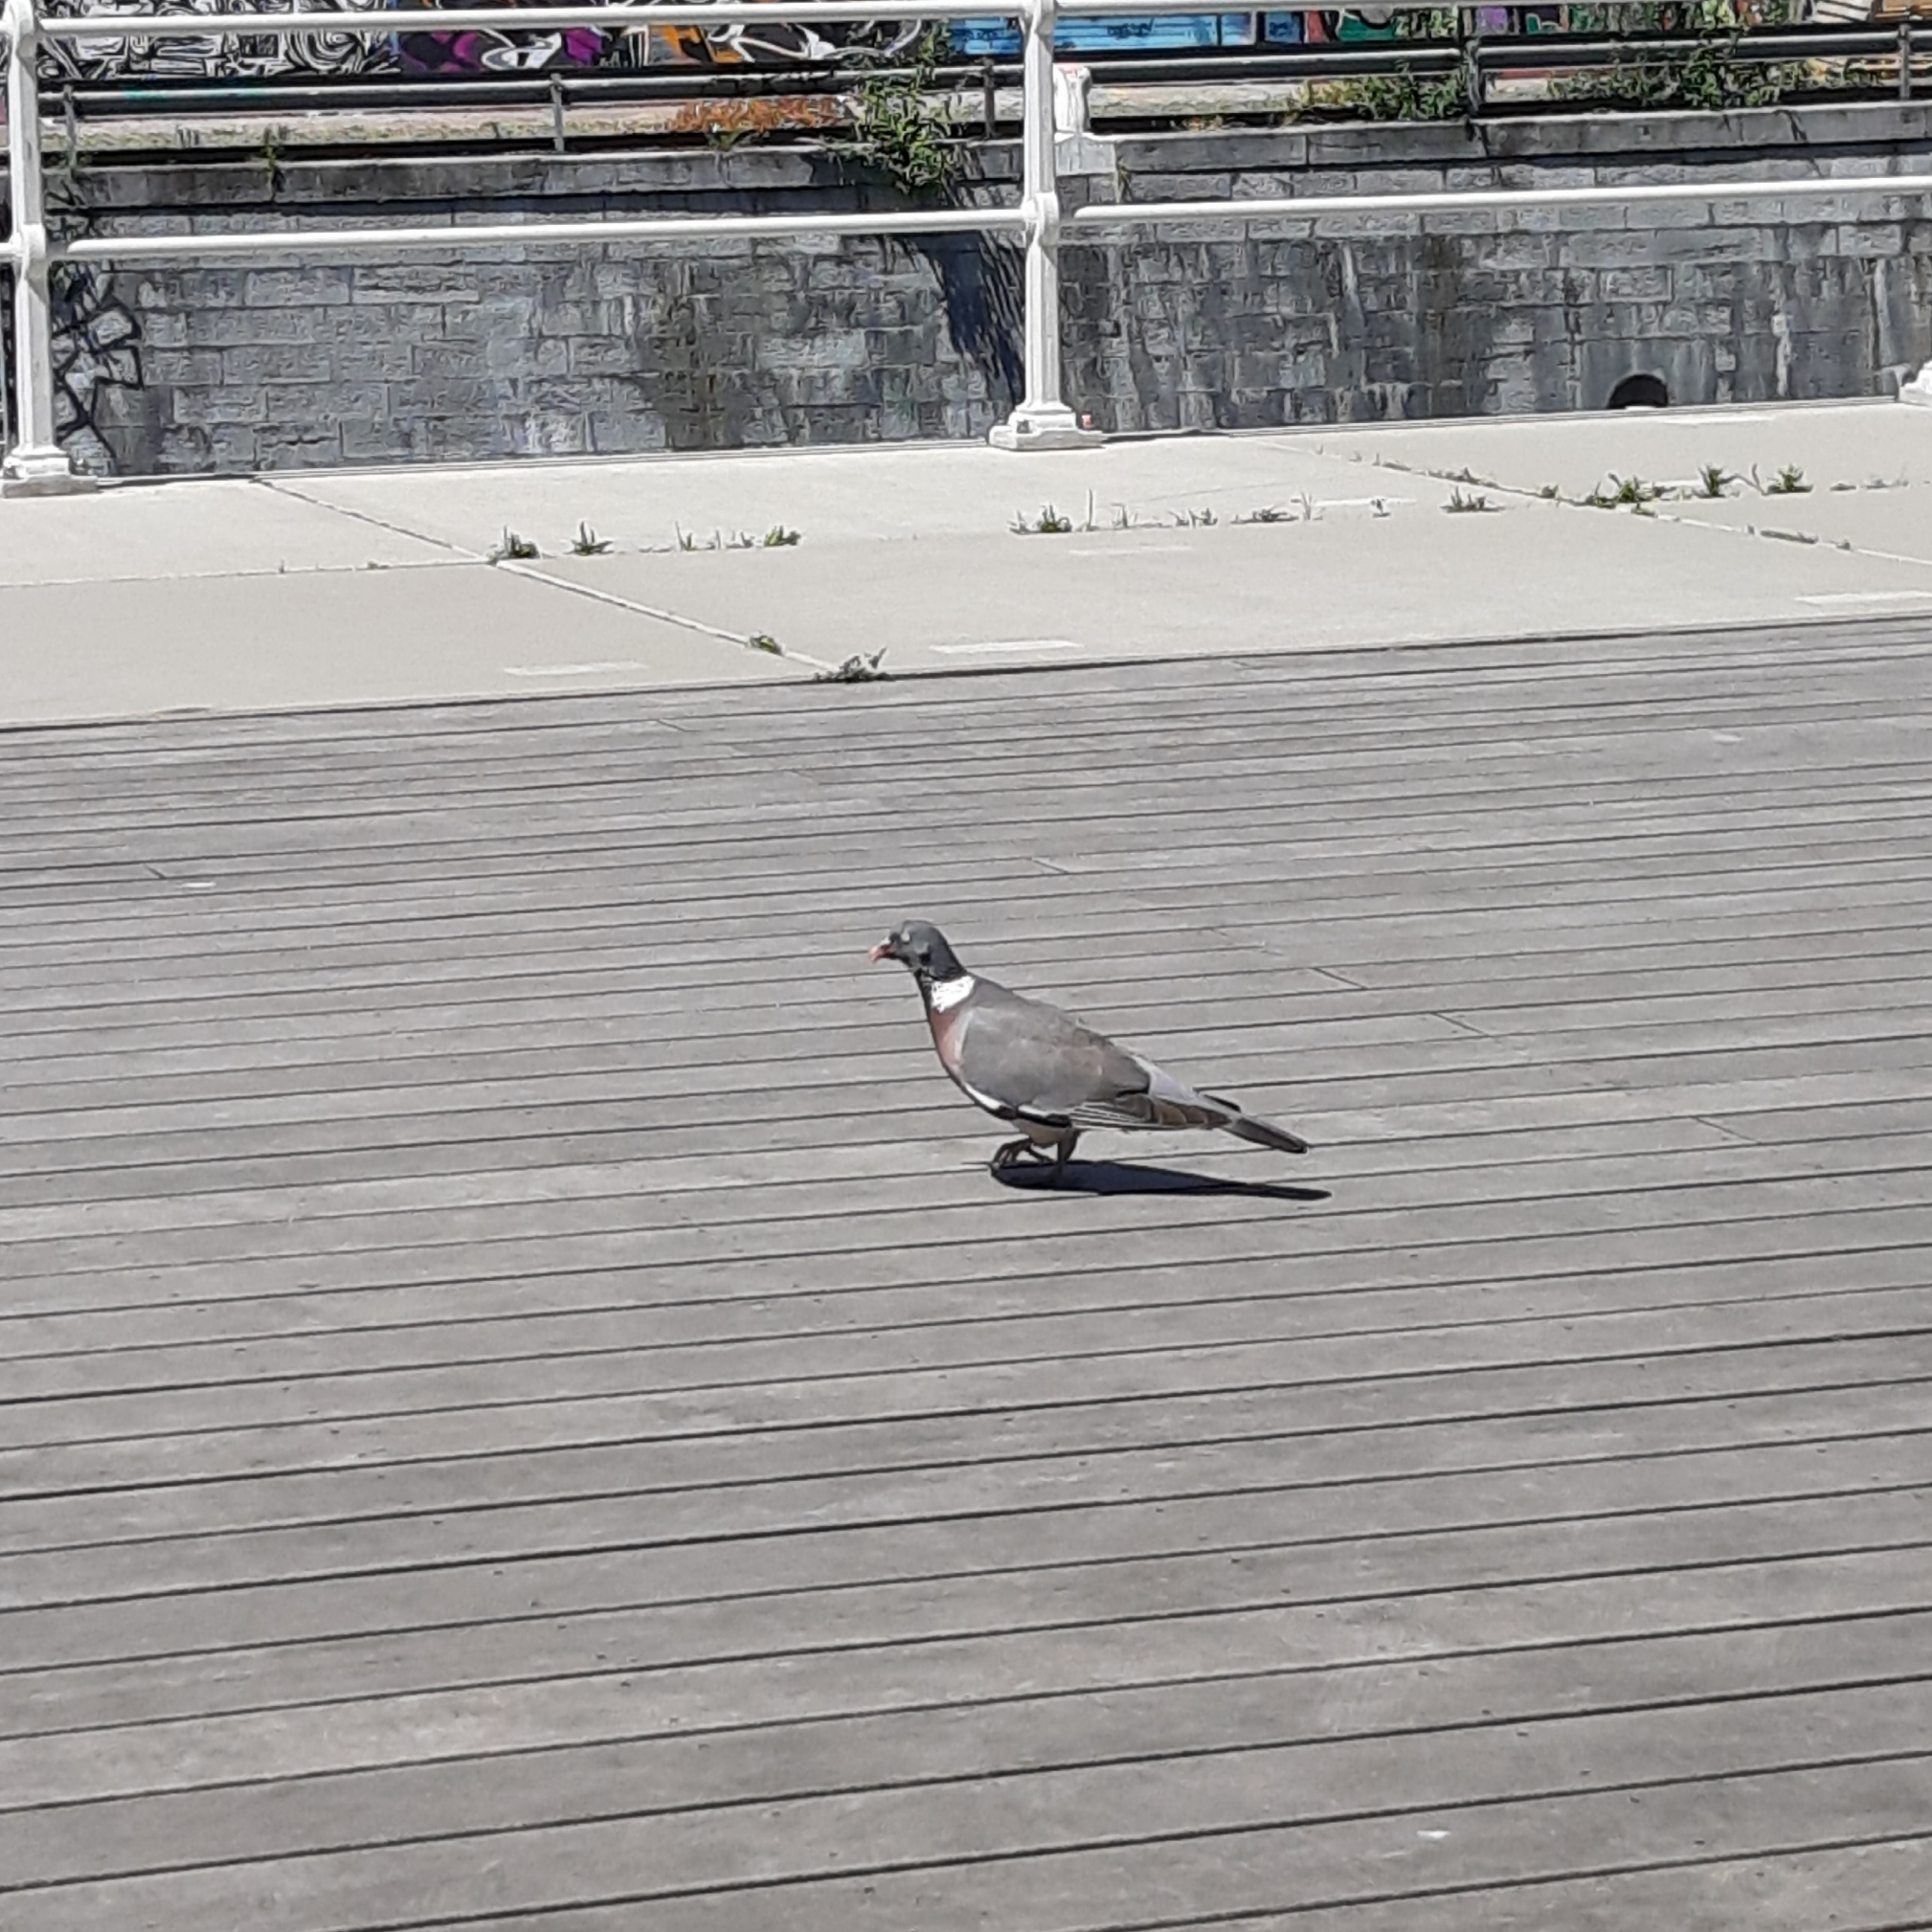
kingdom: Animalia
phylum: Chordata
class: Aves
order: Columbiformes
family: Columbidae
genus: Columba
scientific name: Columba palumbus
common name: Common wood pigeon
